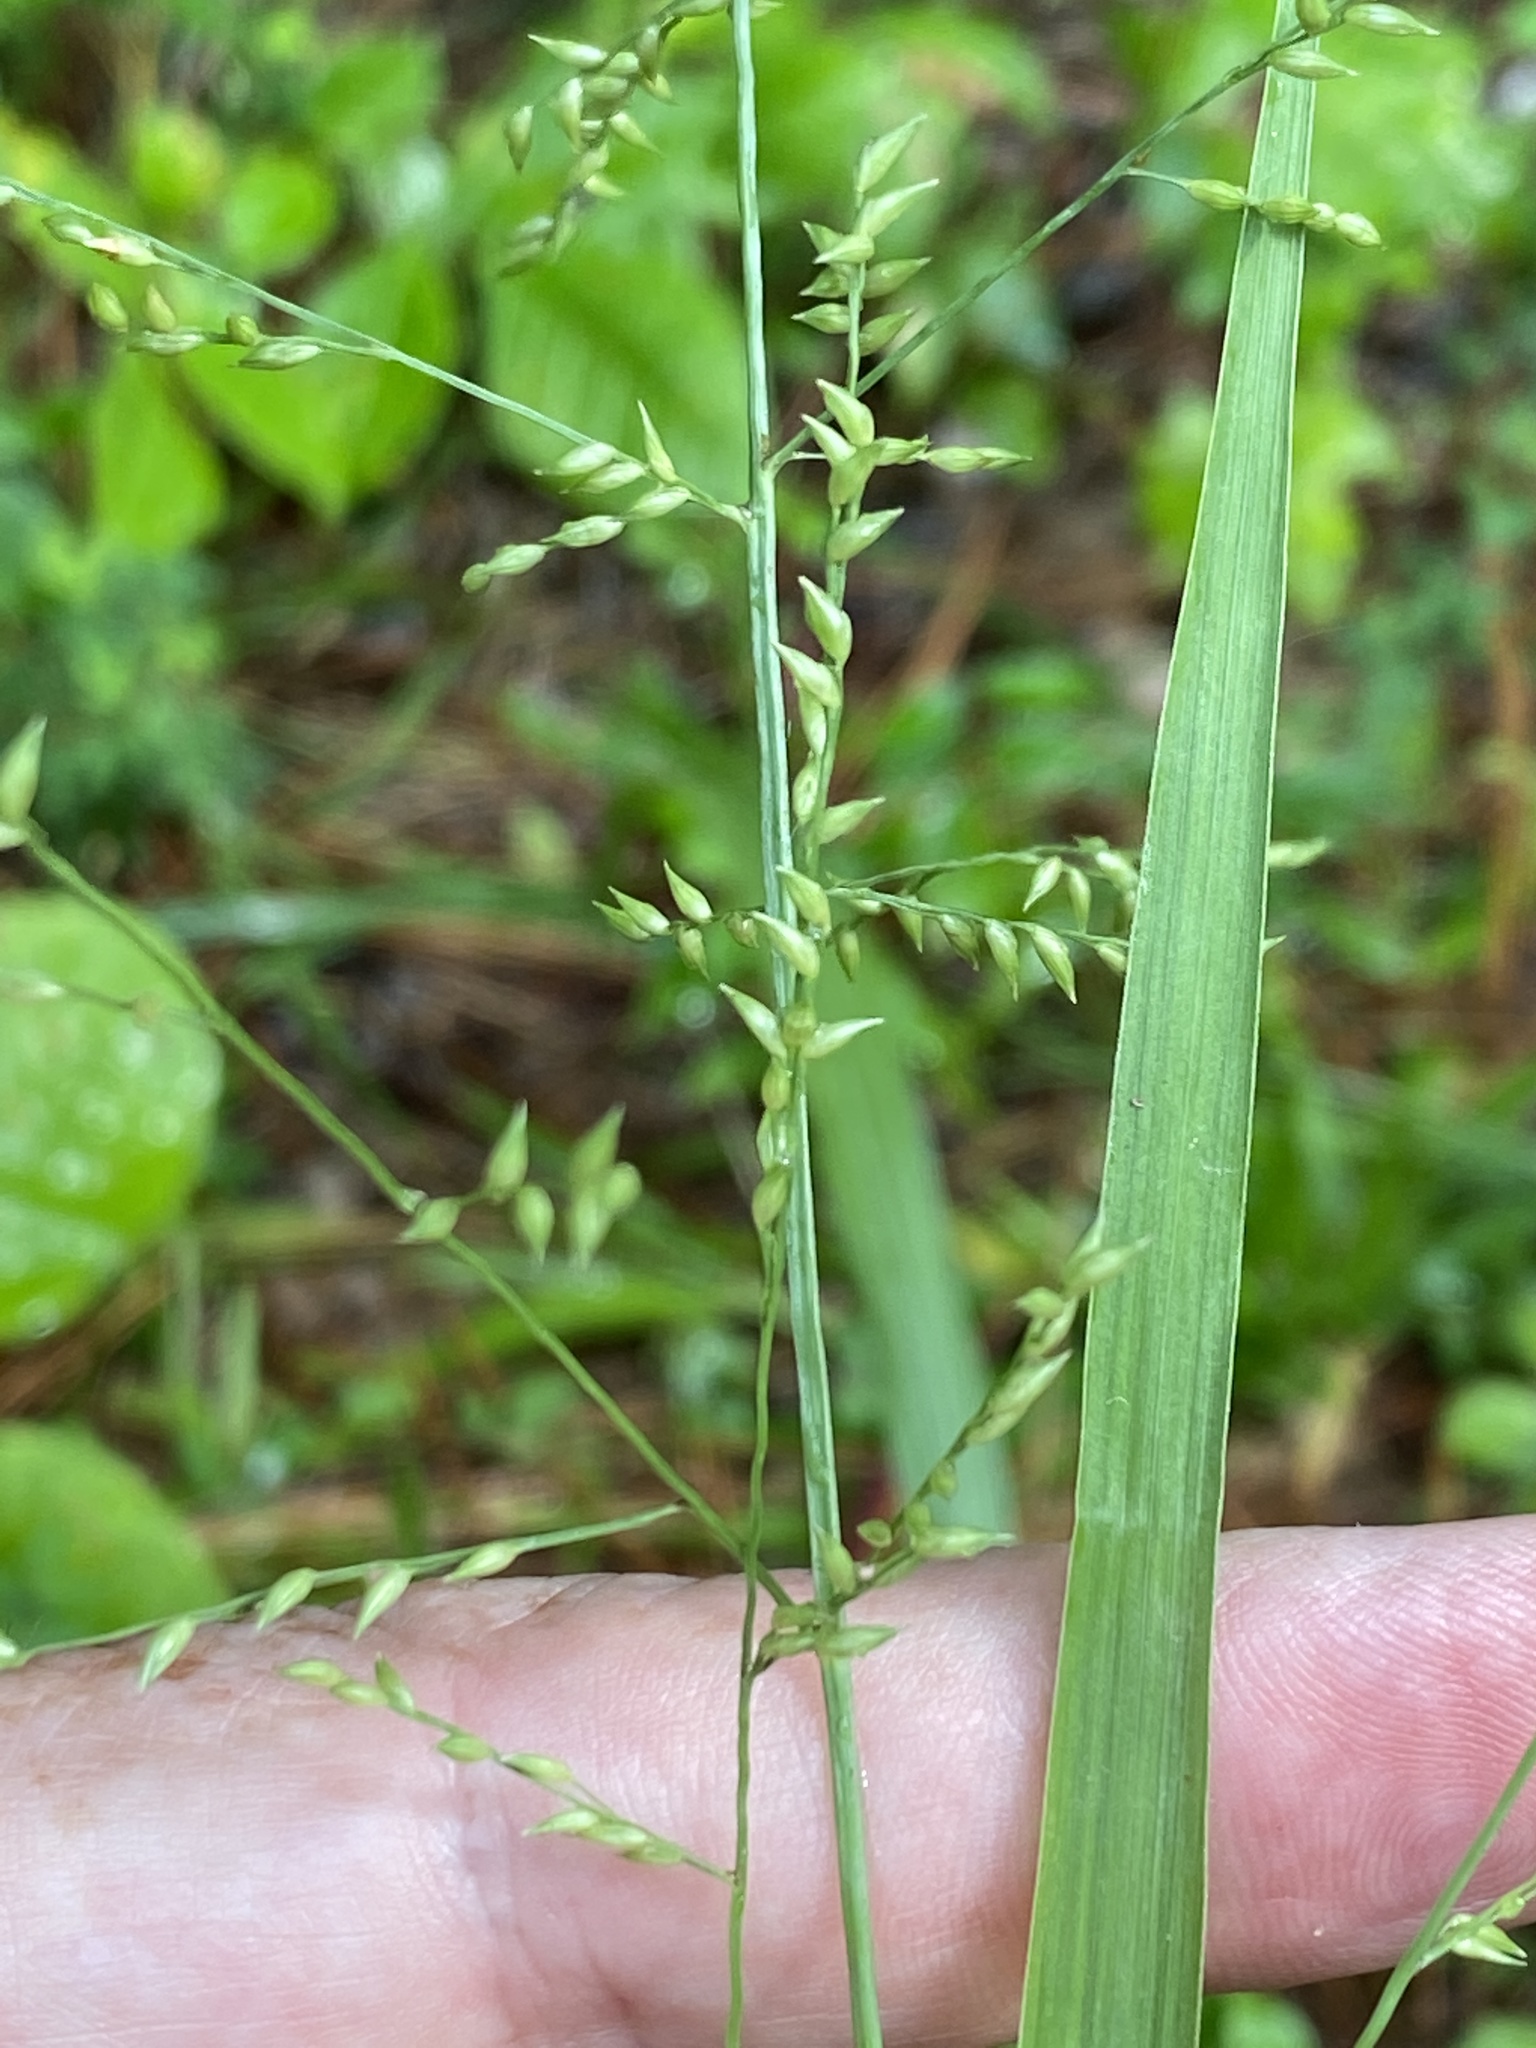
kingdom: Plantae
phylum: Tracheophyta
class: Liliopsida
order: Poales
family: Poaceae
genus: Coleataenia
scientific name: Coleataenia anceps
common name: Beaked panic grass
